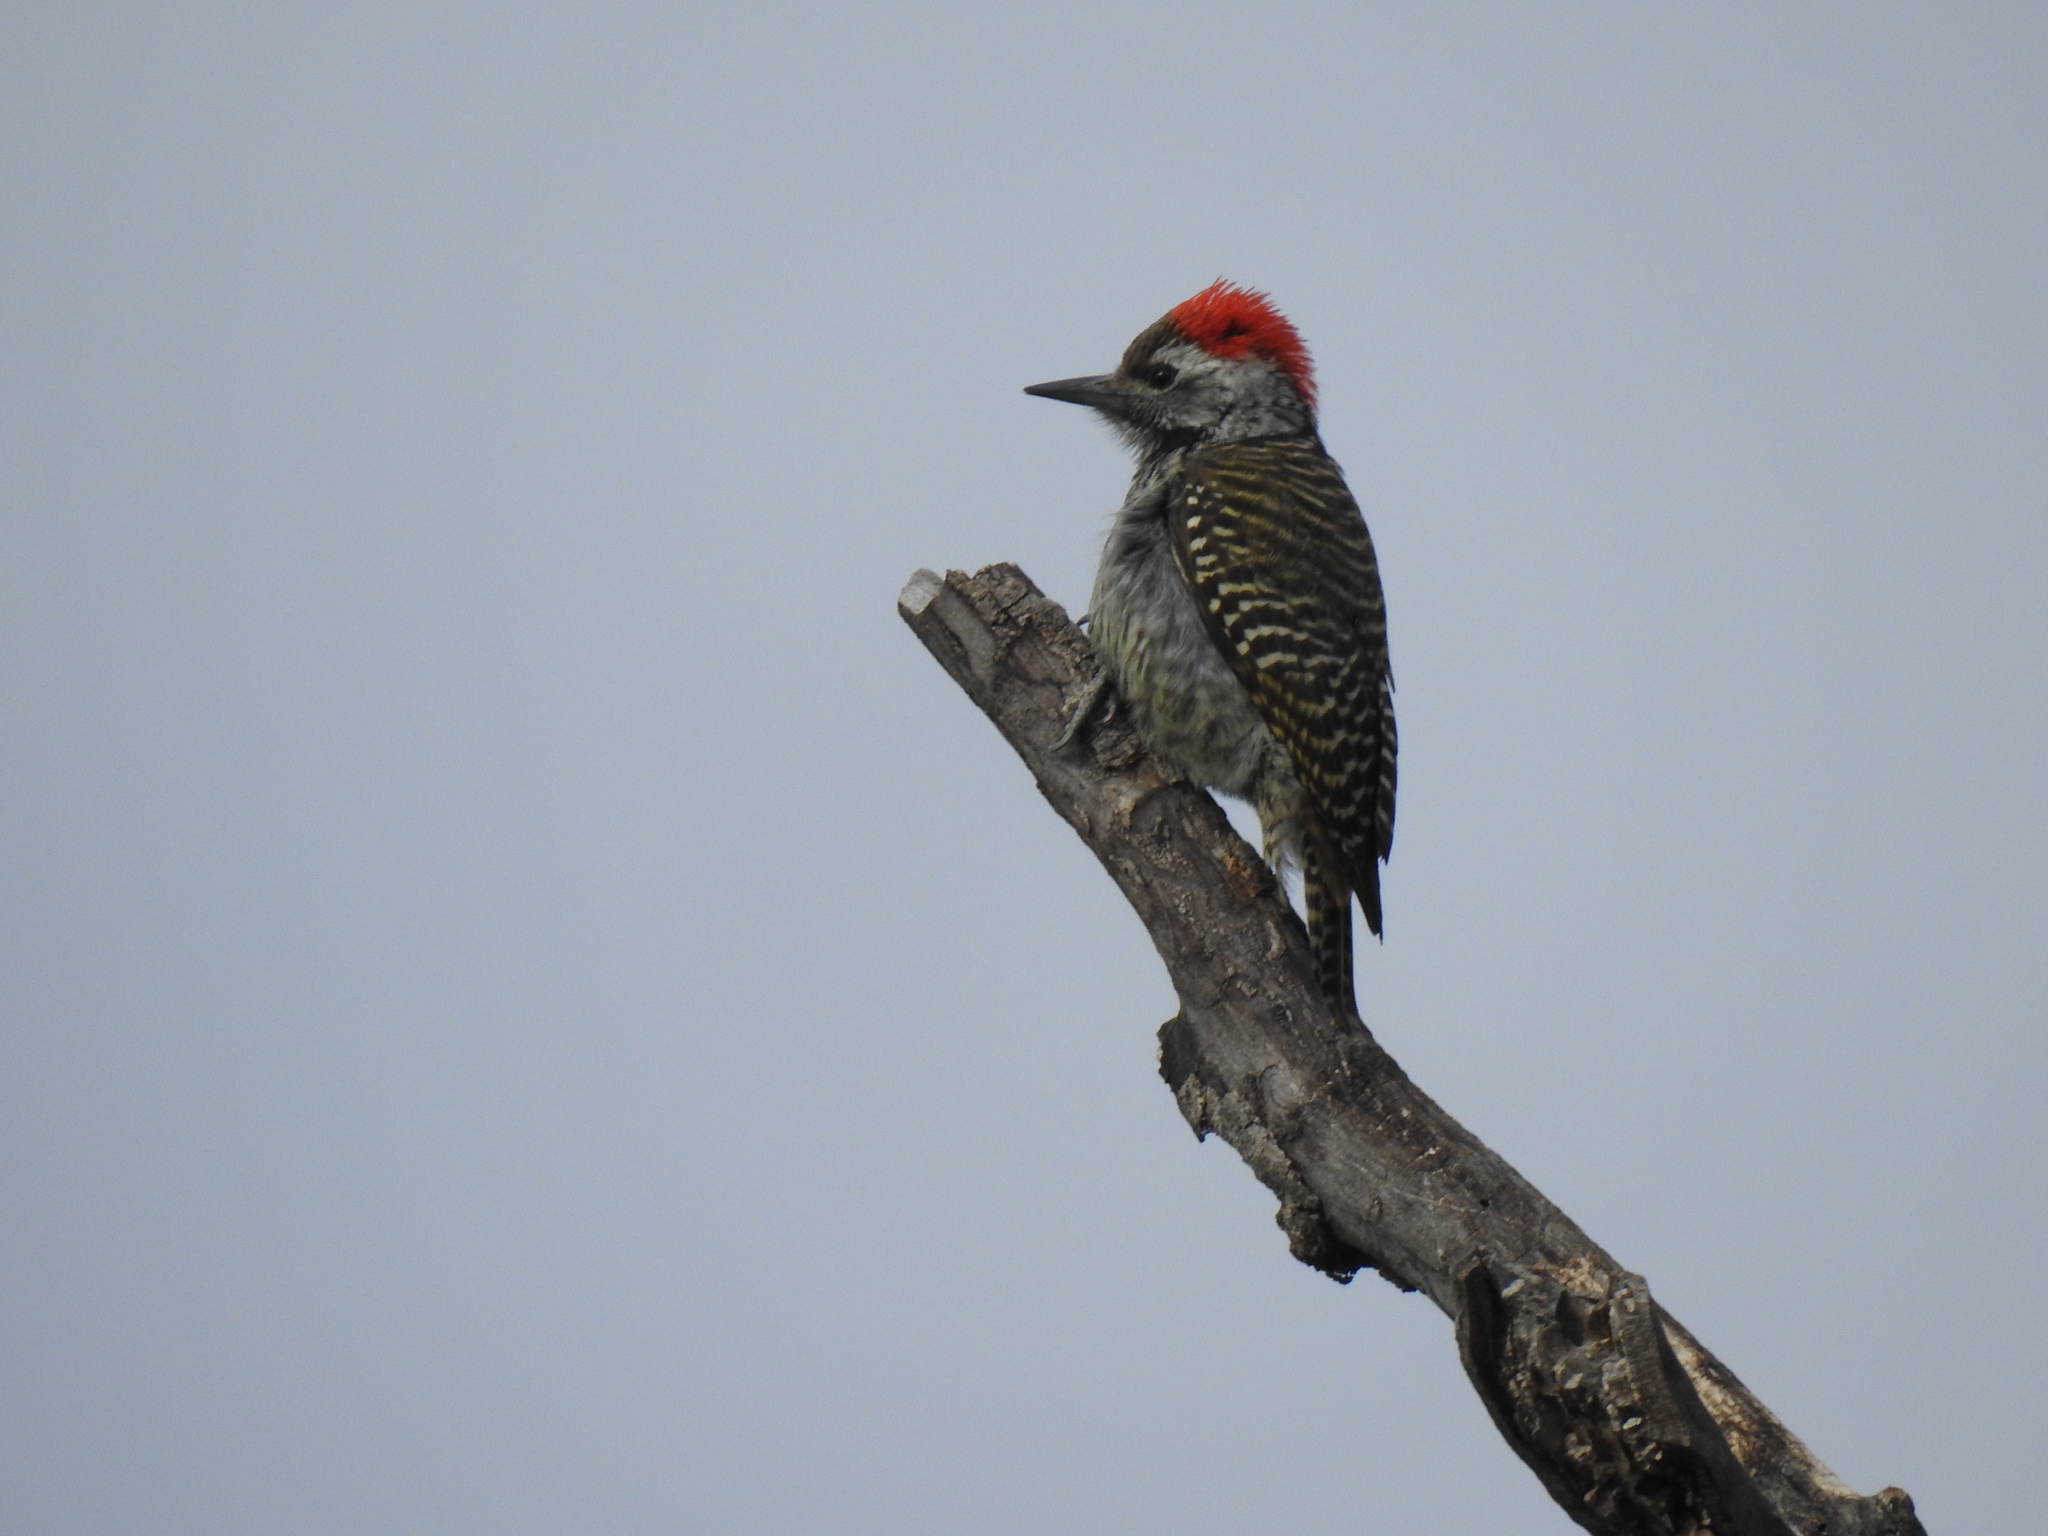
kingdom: Animalia
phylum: Chordata
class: Aves
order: Piciformes
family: Picidae
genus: Dendropicos
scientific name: Dendropicos fuscescens
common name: Cardinal woodpecker
